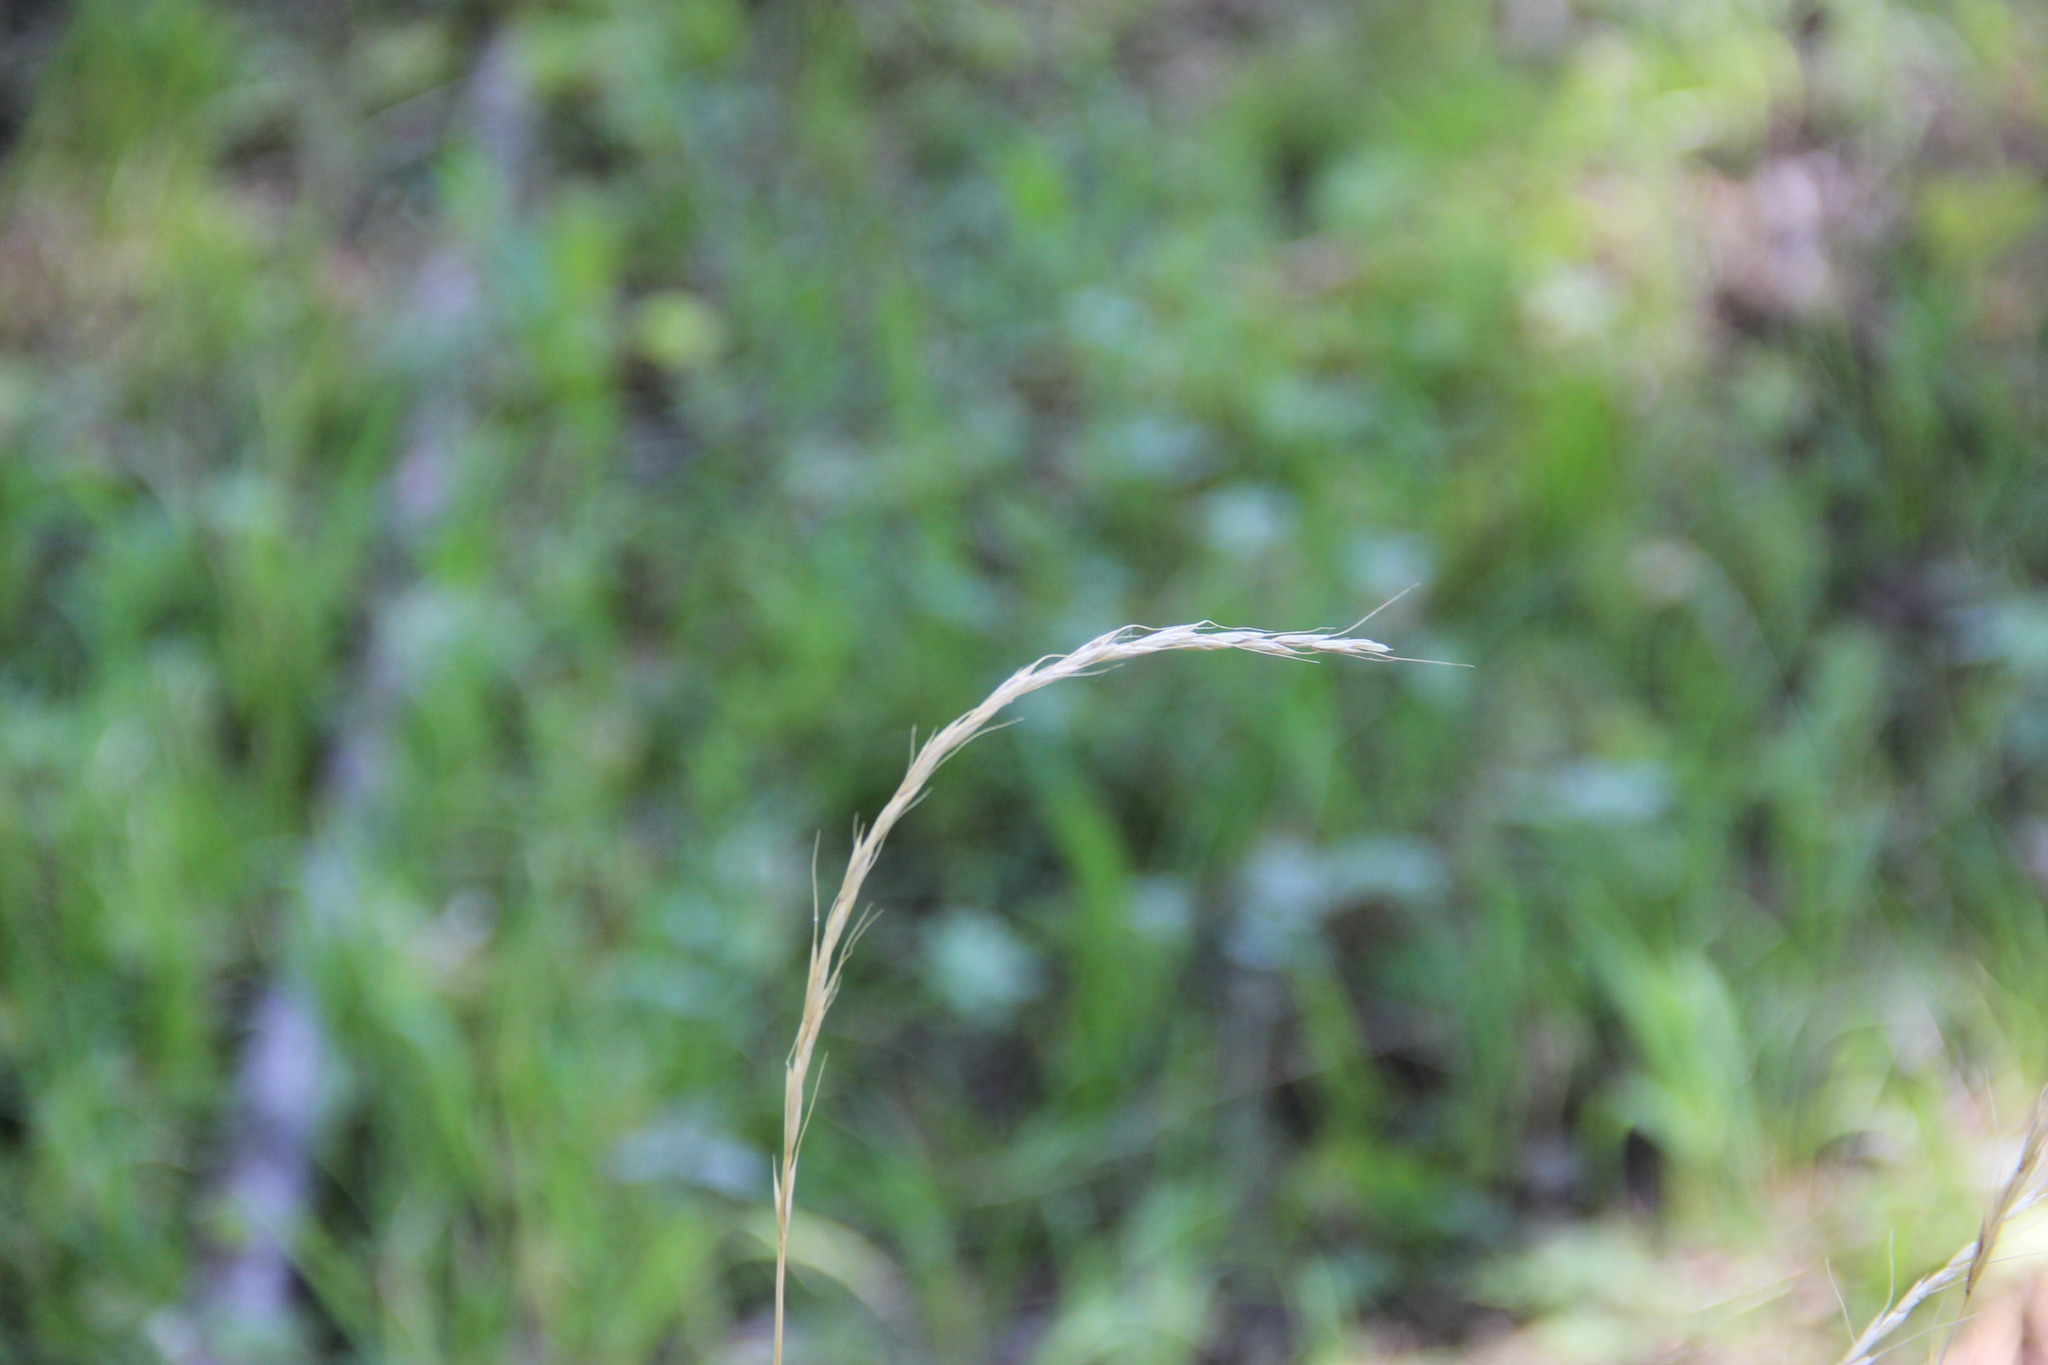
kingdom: Plantae
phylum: Tracheophyta
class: Liliopsida
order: Poales
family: Poaceae
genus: Elymus
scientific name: Elymus caninus
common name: Bearded couch
